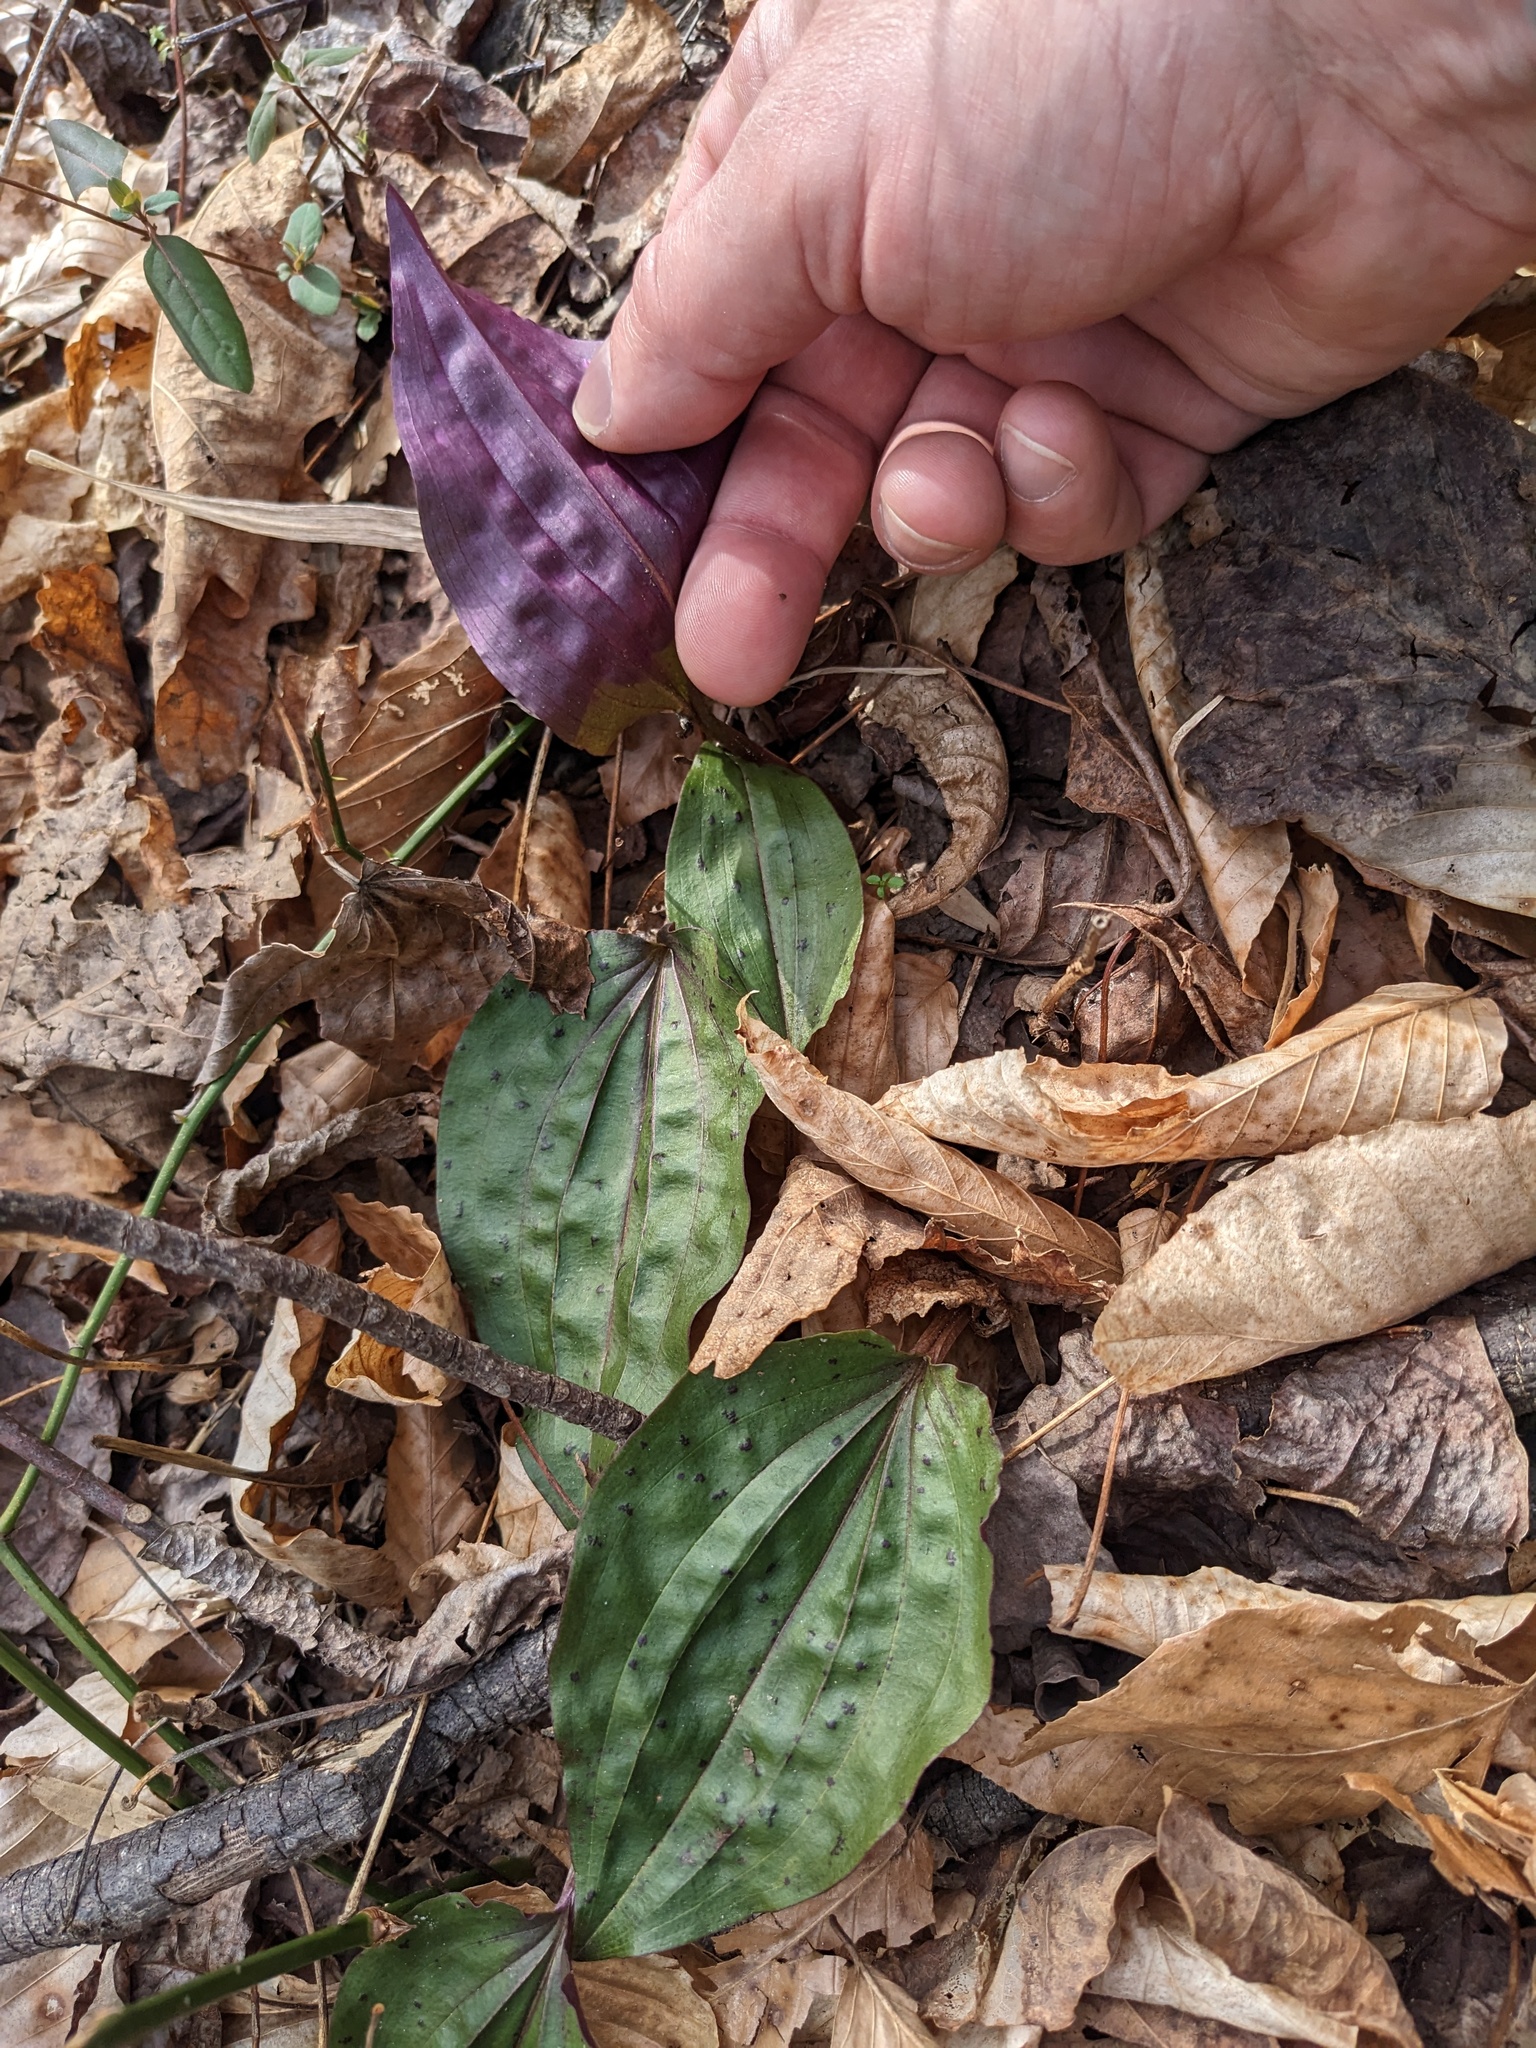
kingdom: Plantae
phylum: Tracheophyta
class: Liliopsida
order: Asparagales
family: Orchidaceae
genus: Tipularia
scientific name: Tipularia discolor
